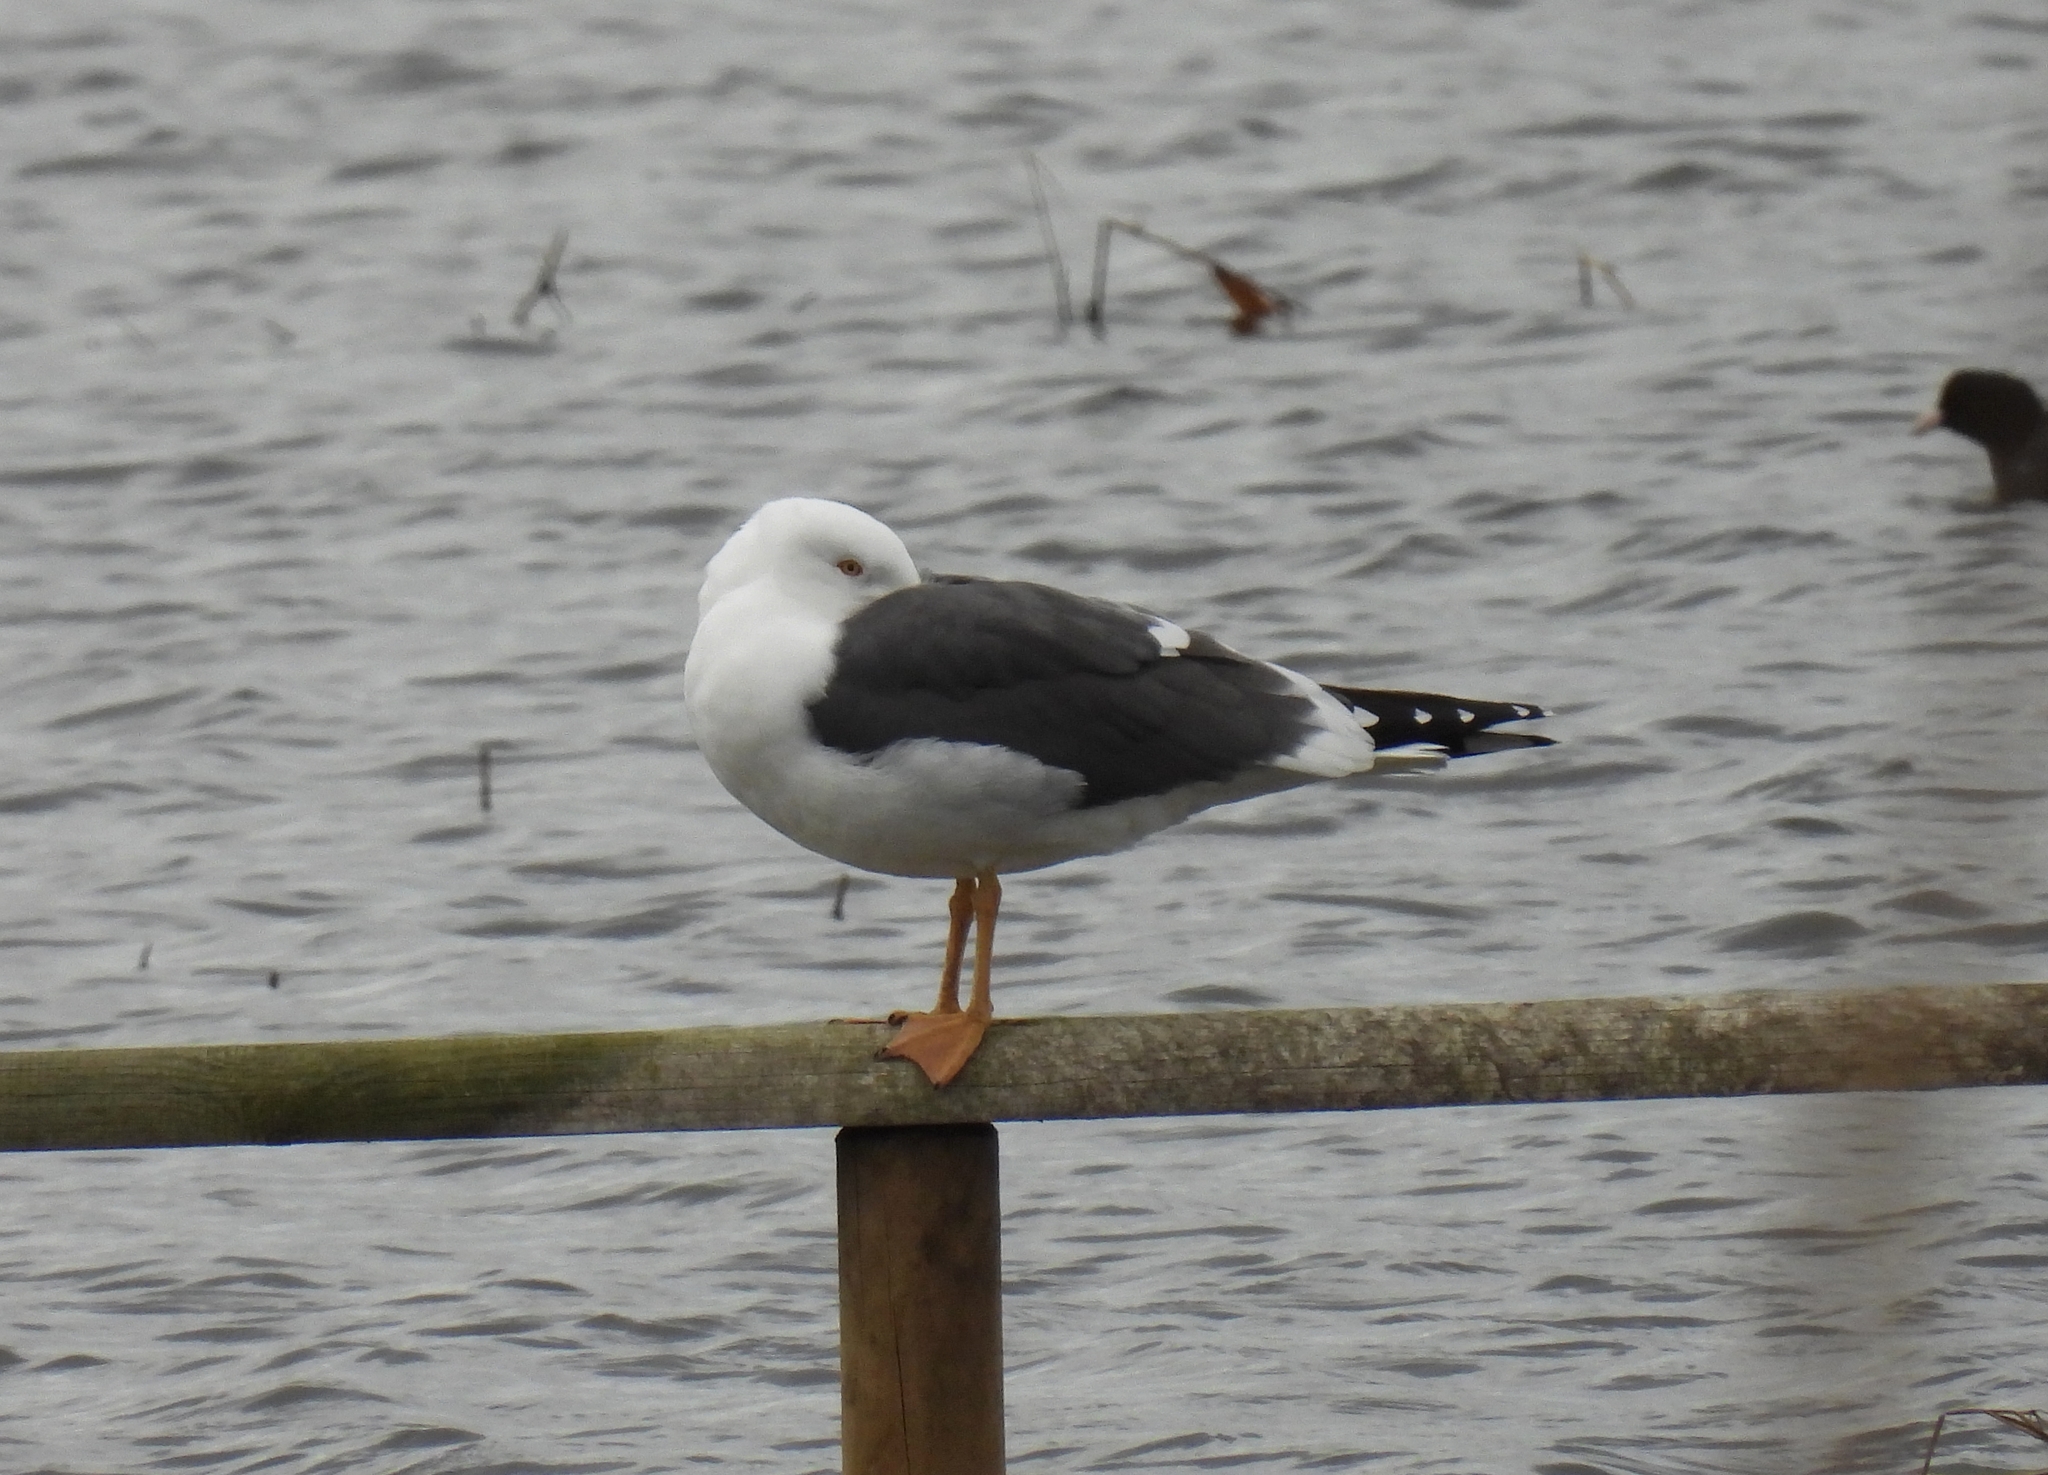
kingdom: Animalia
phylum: Chordata
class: Aves
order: Charadriiformes
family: Laridae
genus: Larus
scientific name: Larus marinus
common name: Great black-backed gull
